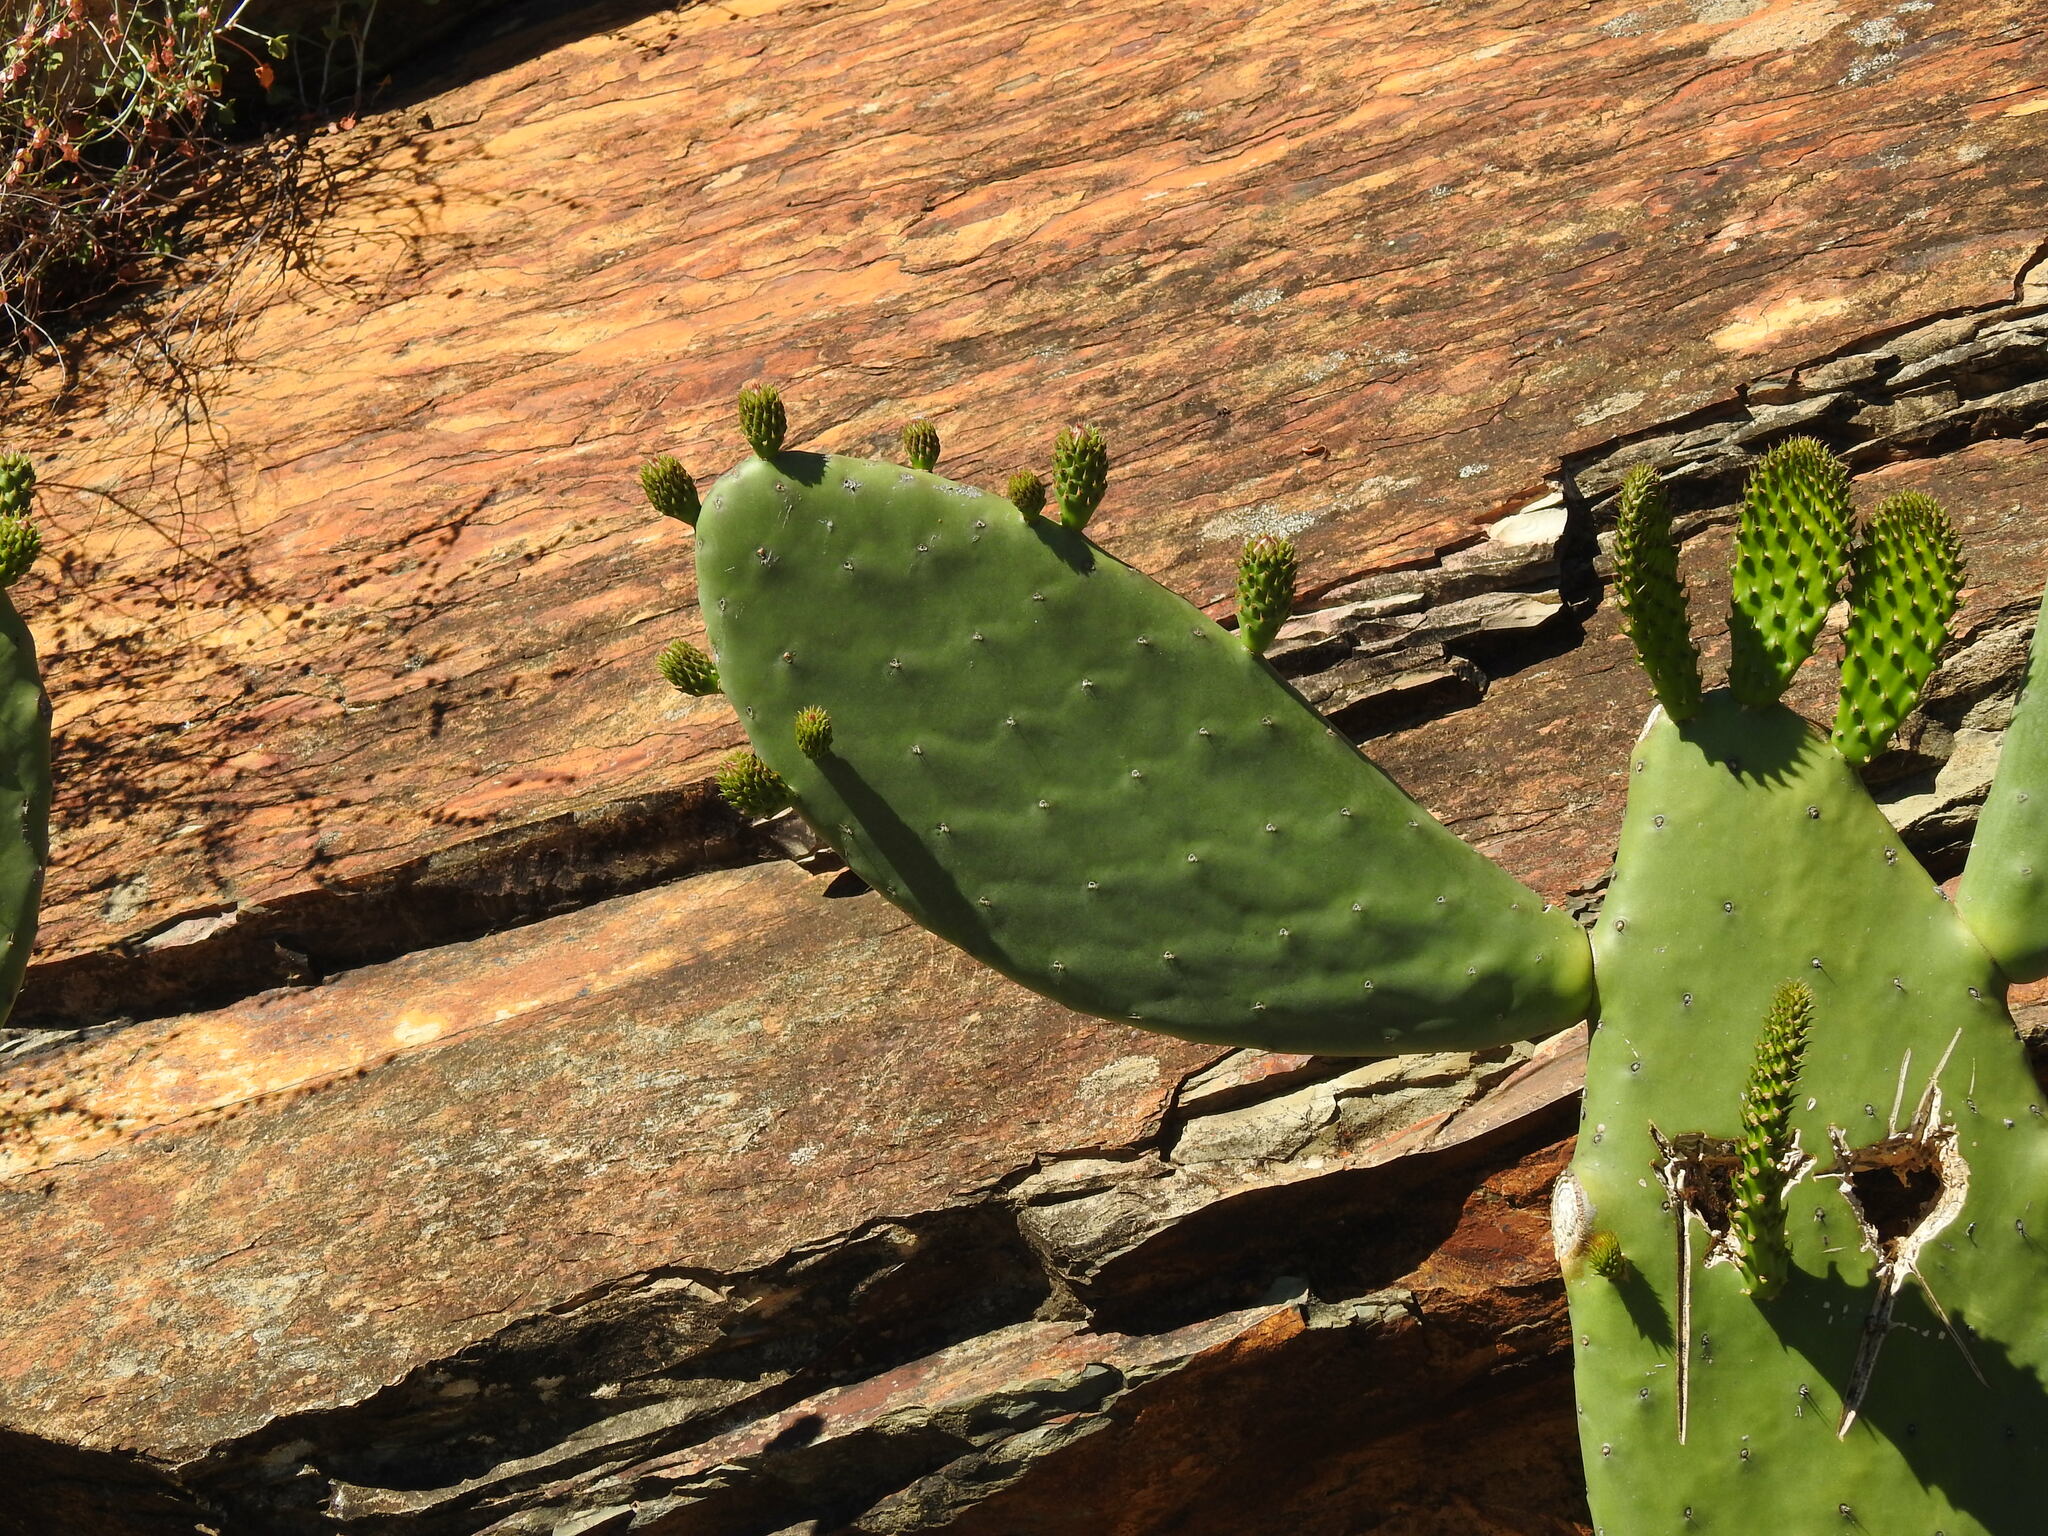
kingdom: Plantae
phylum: Tracheophyta
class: Magnoliopsida
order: Caryophyllales
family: Cactaceae
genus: Opuntia
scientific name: Opuntia ficus-indica
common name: Barbary fig
